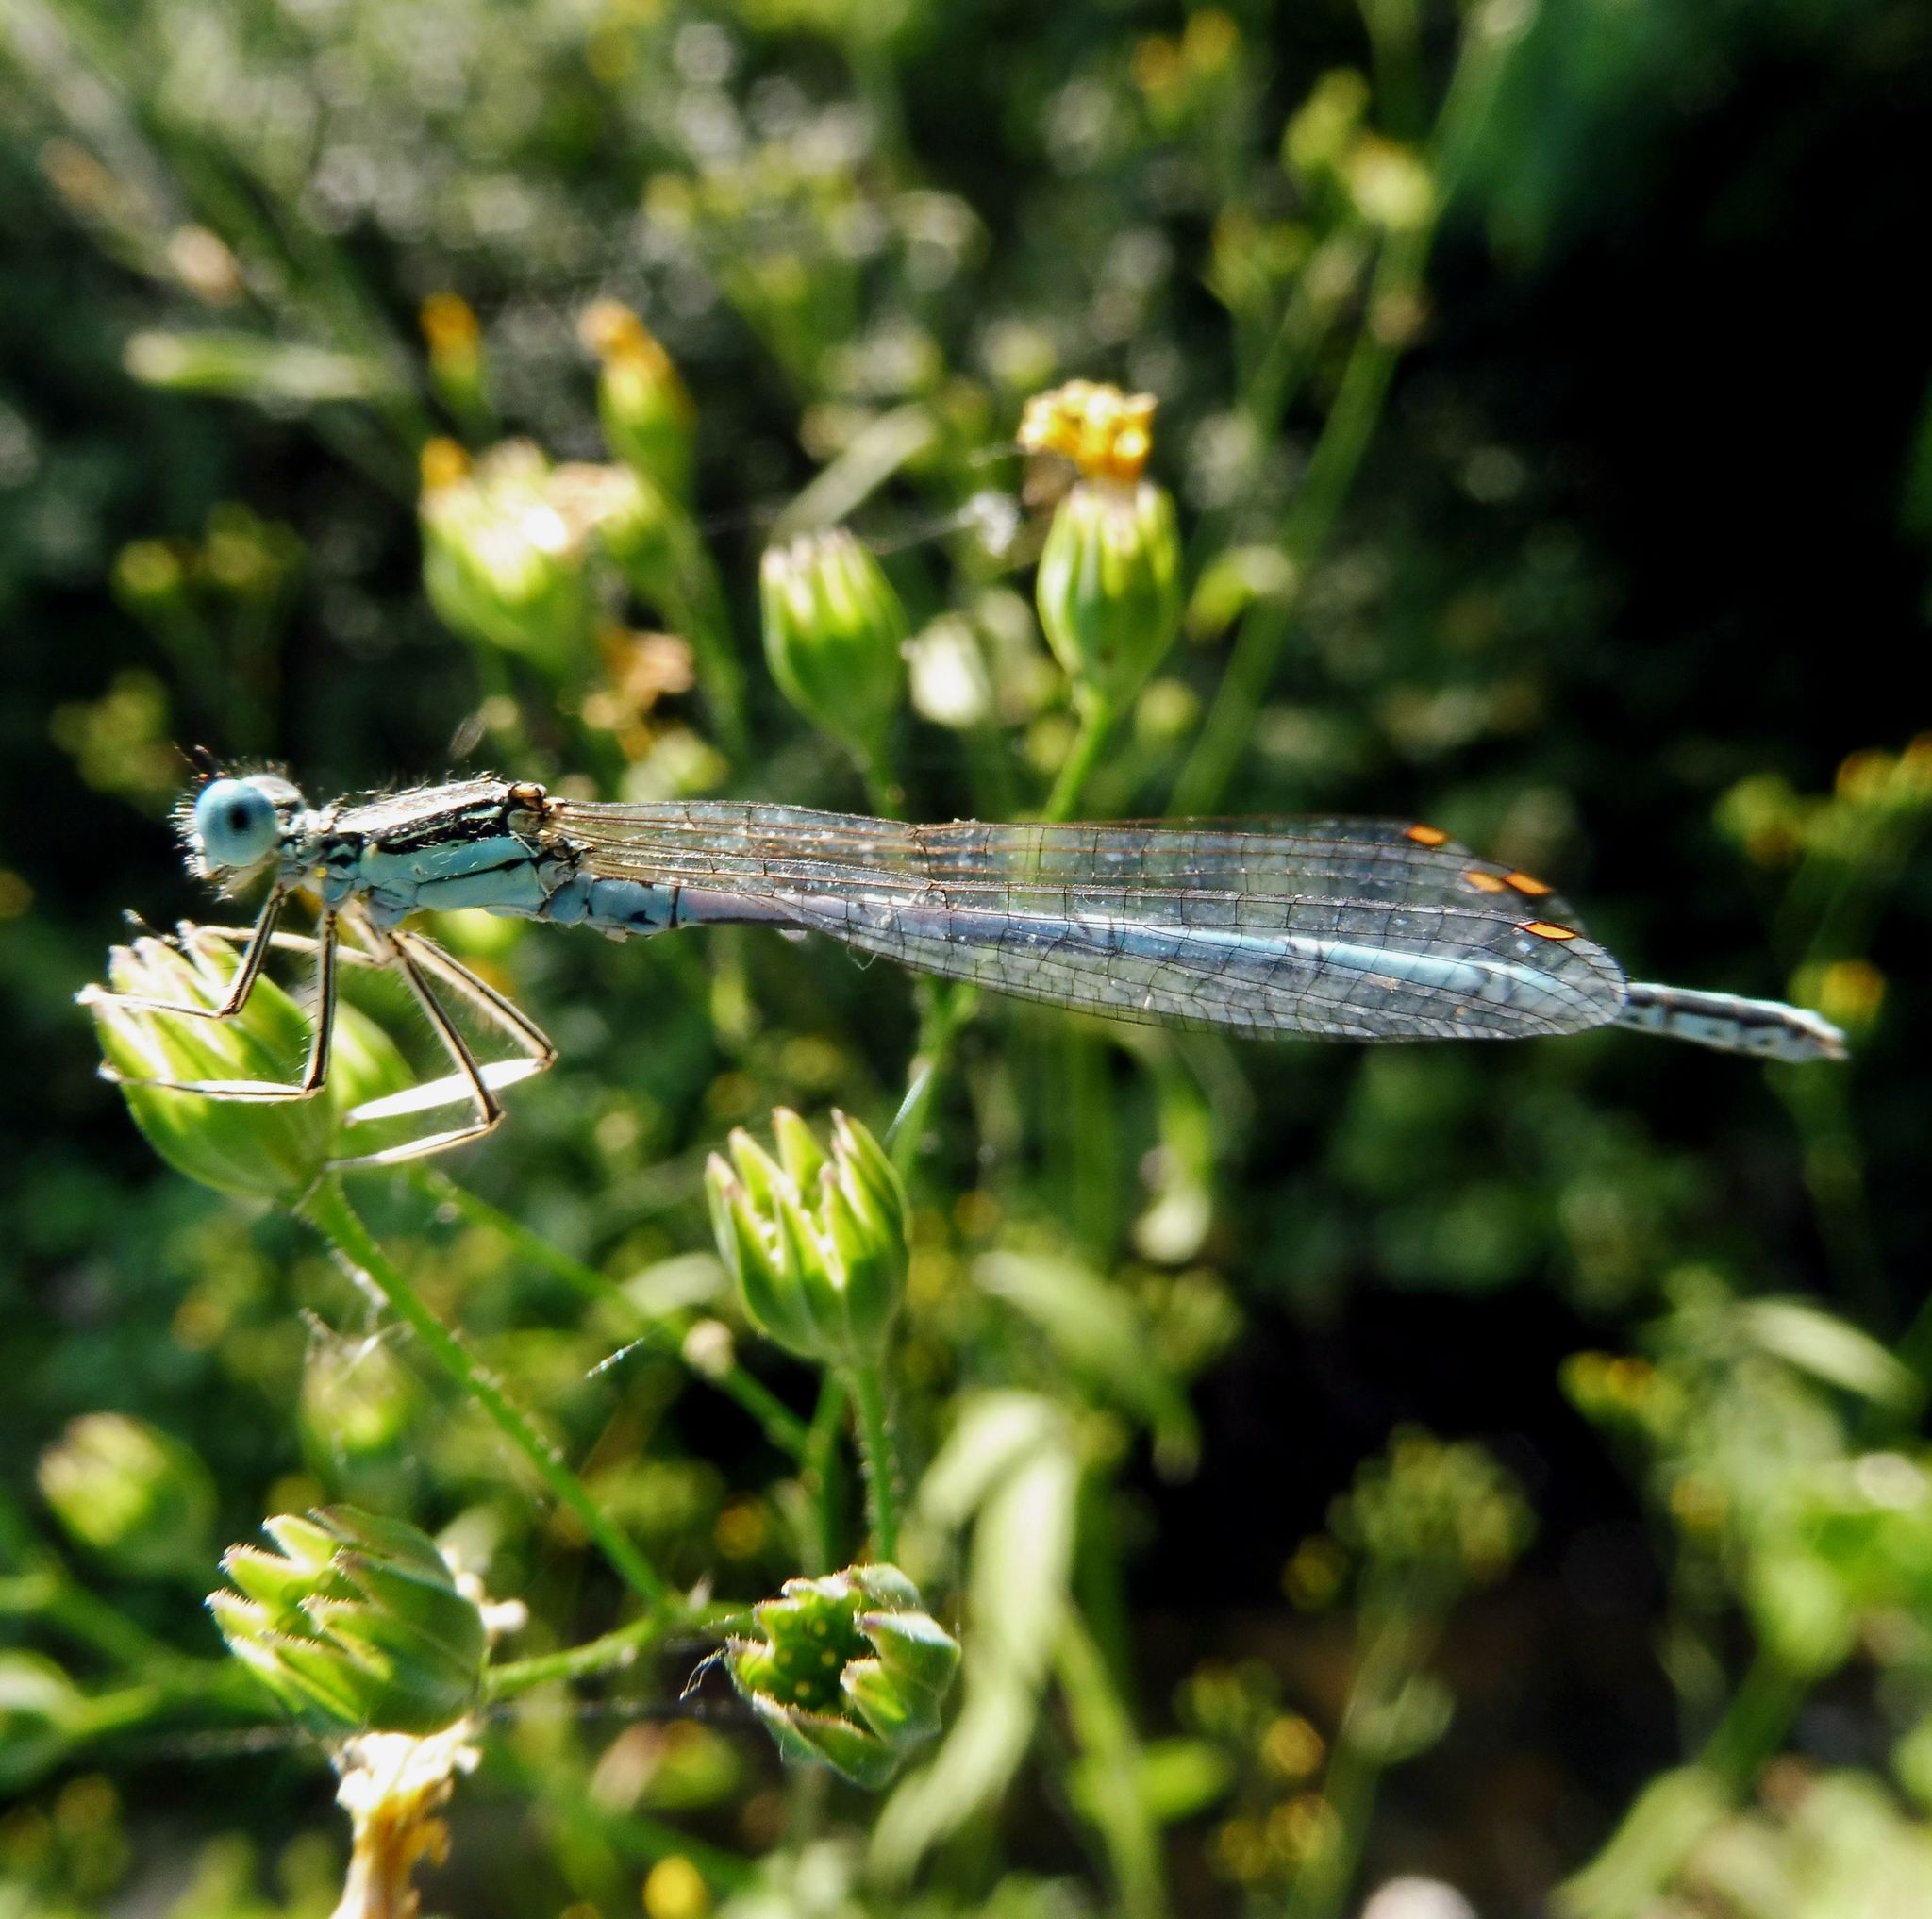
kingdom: Animalia
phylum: Arthropoda
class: Insecta
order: Odonata
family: Platycnemididae
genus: Platycnemis
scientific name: Platycnemis pennipes
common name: White-legged damselfly
